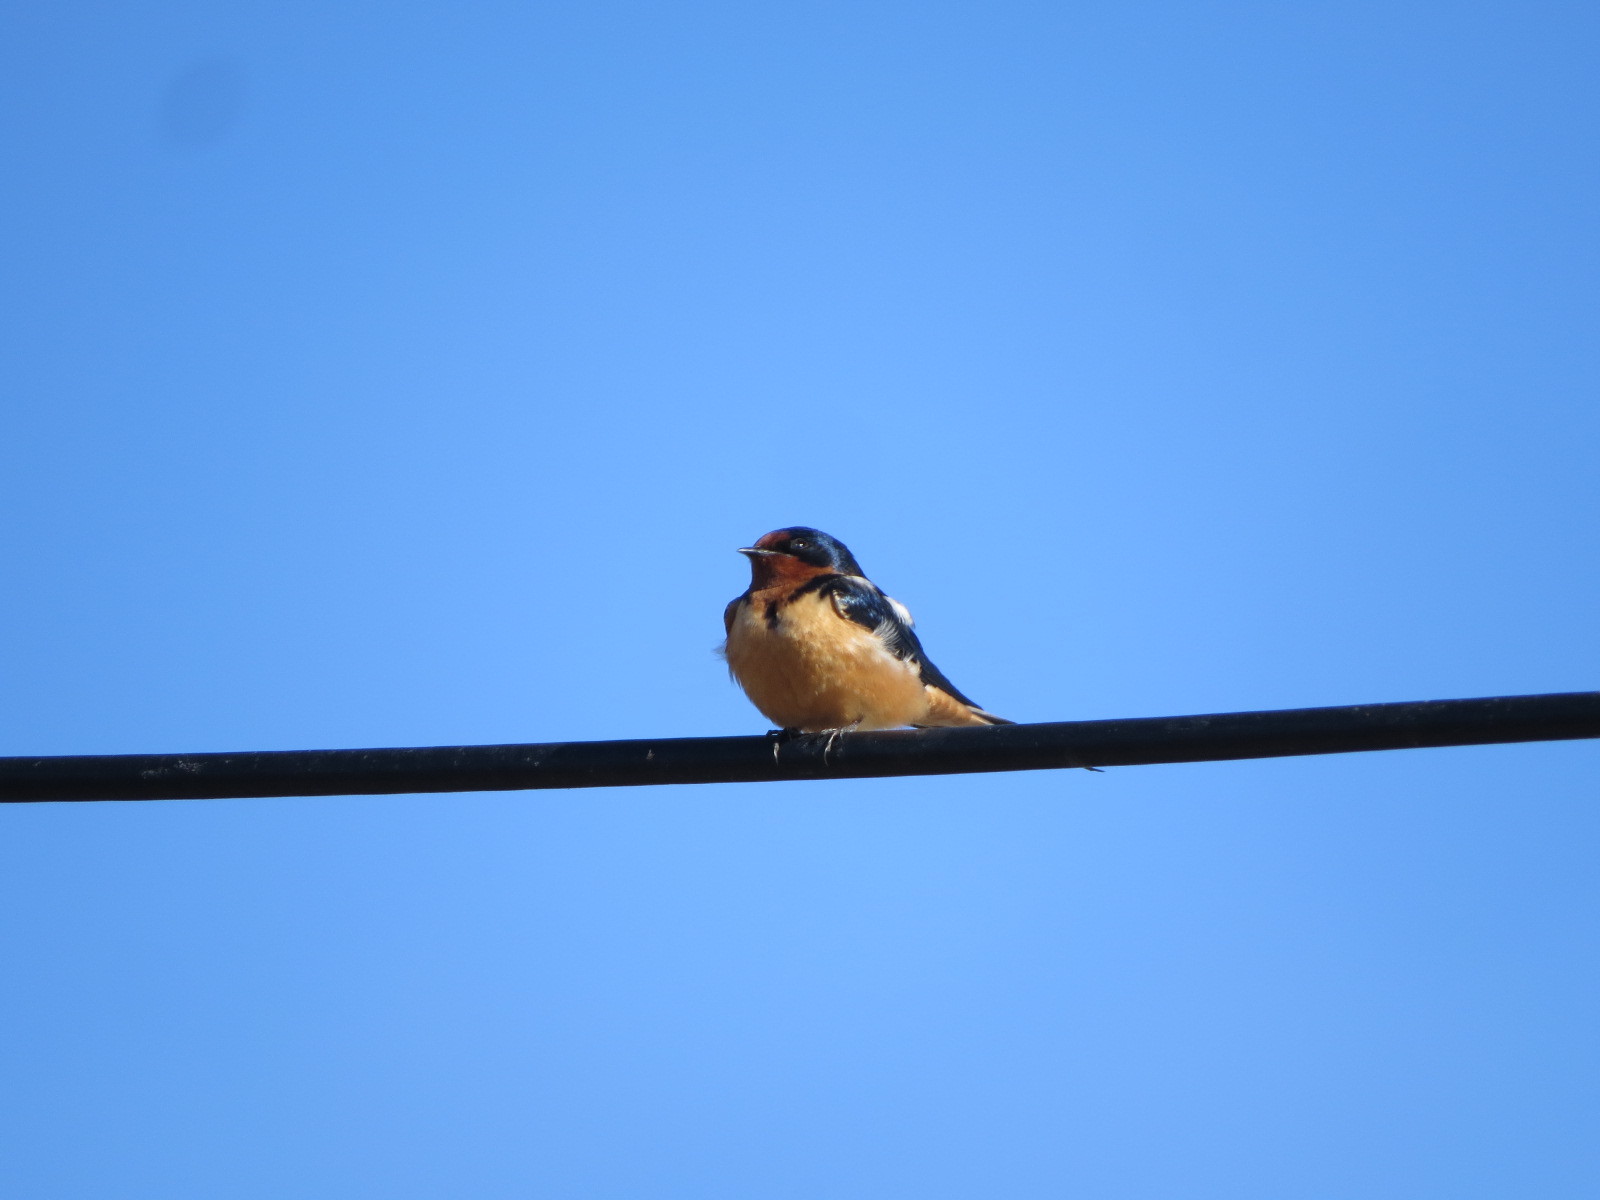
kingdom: Animalia
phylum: Chordata
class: Aves
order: Passeriformes
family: Hirundinidae
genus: Hirundo
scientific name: Hirundo rustica
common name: Barn swallow
